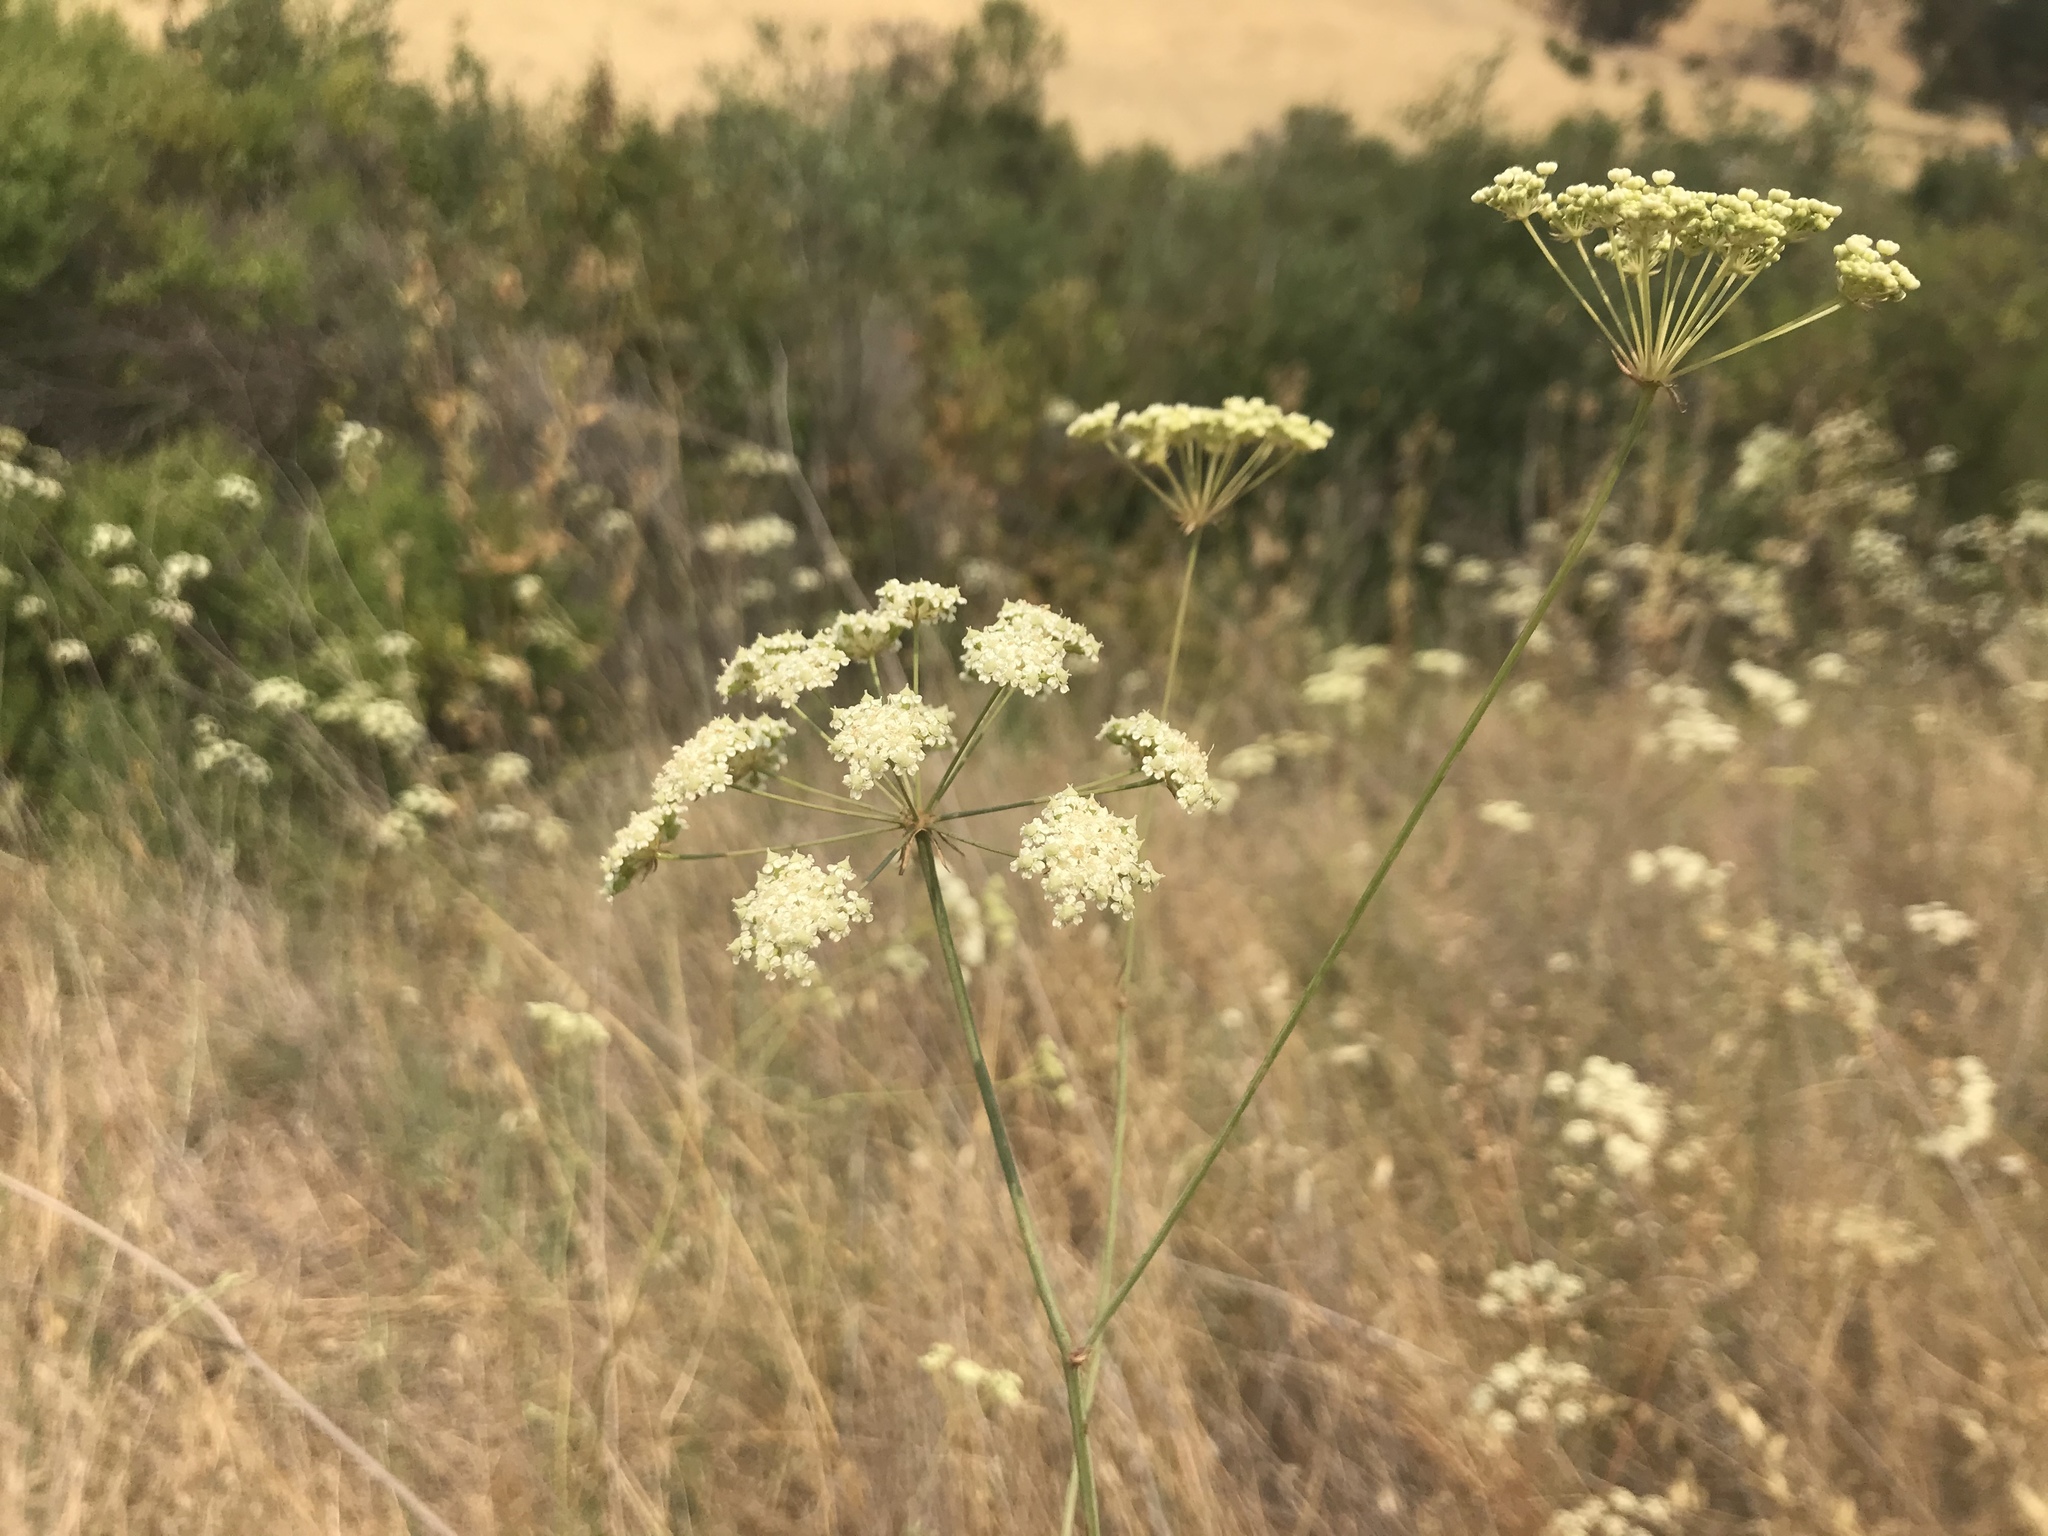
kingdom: Plantae
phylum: Tracheophyta
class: Magnoliopsida
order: Apiales
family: Apiaceae
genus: Perideridia
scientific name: Perideridia kelloggii
